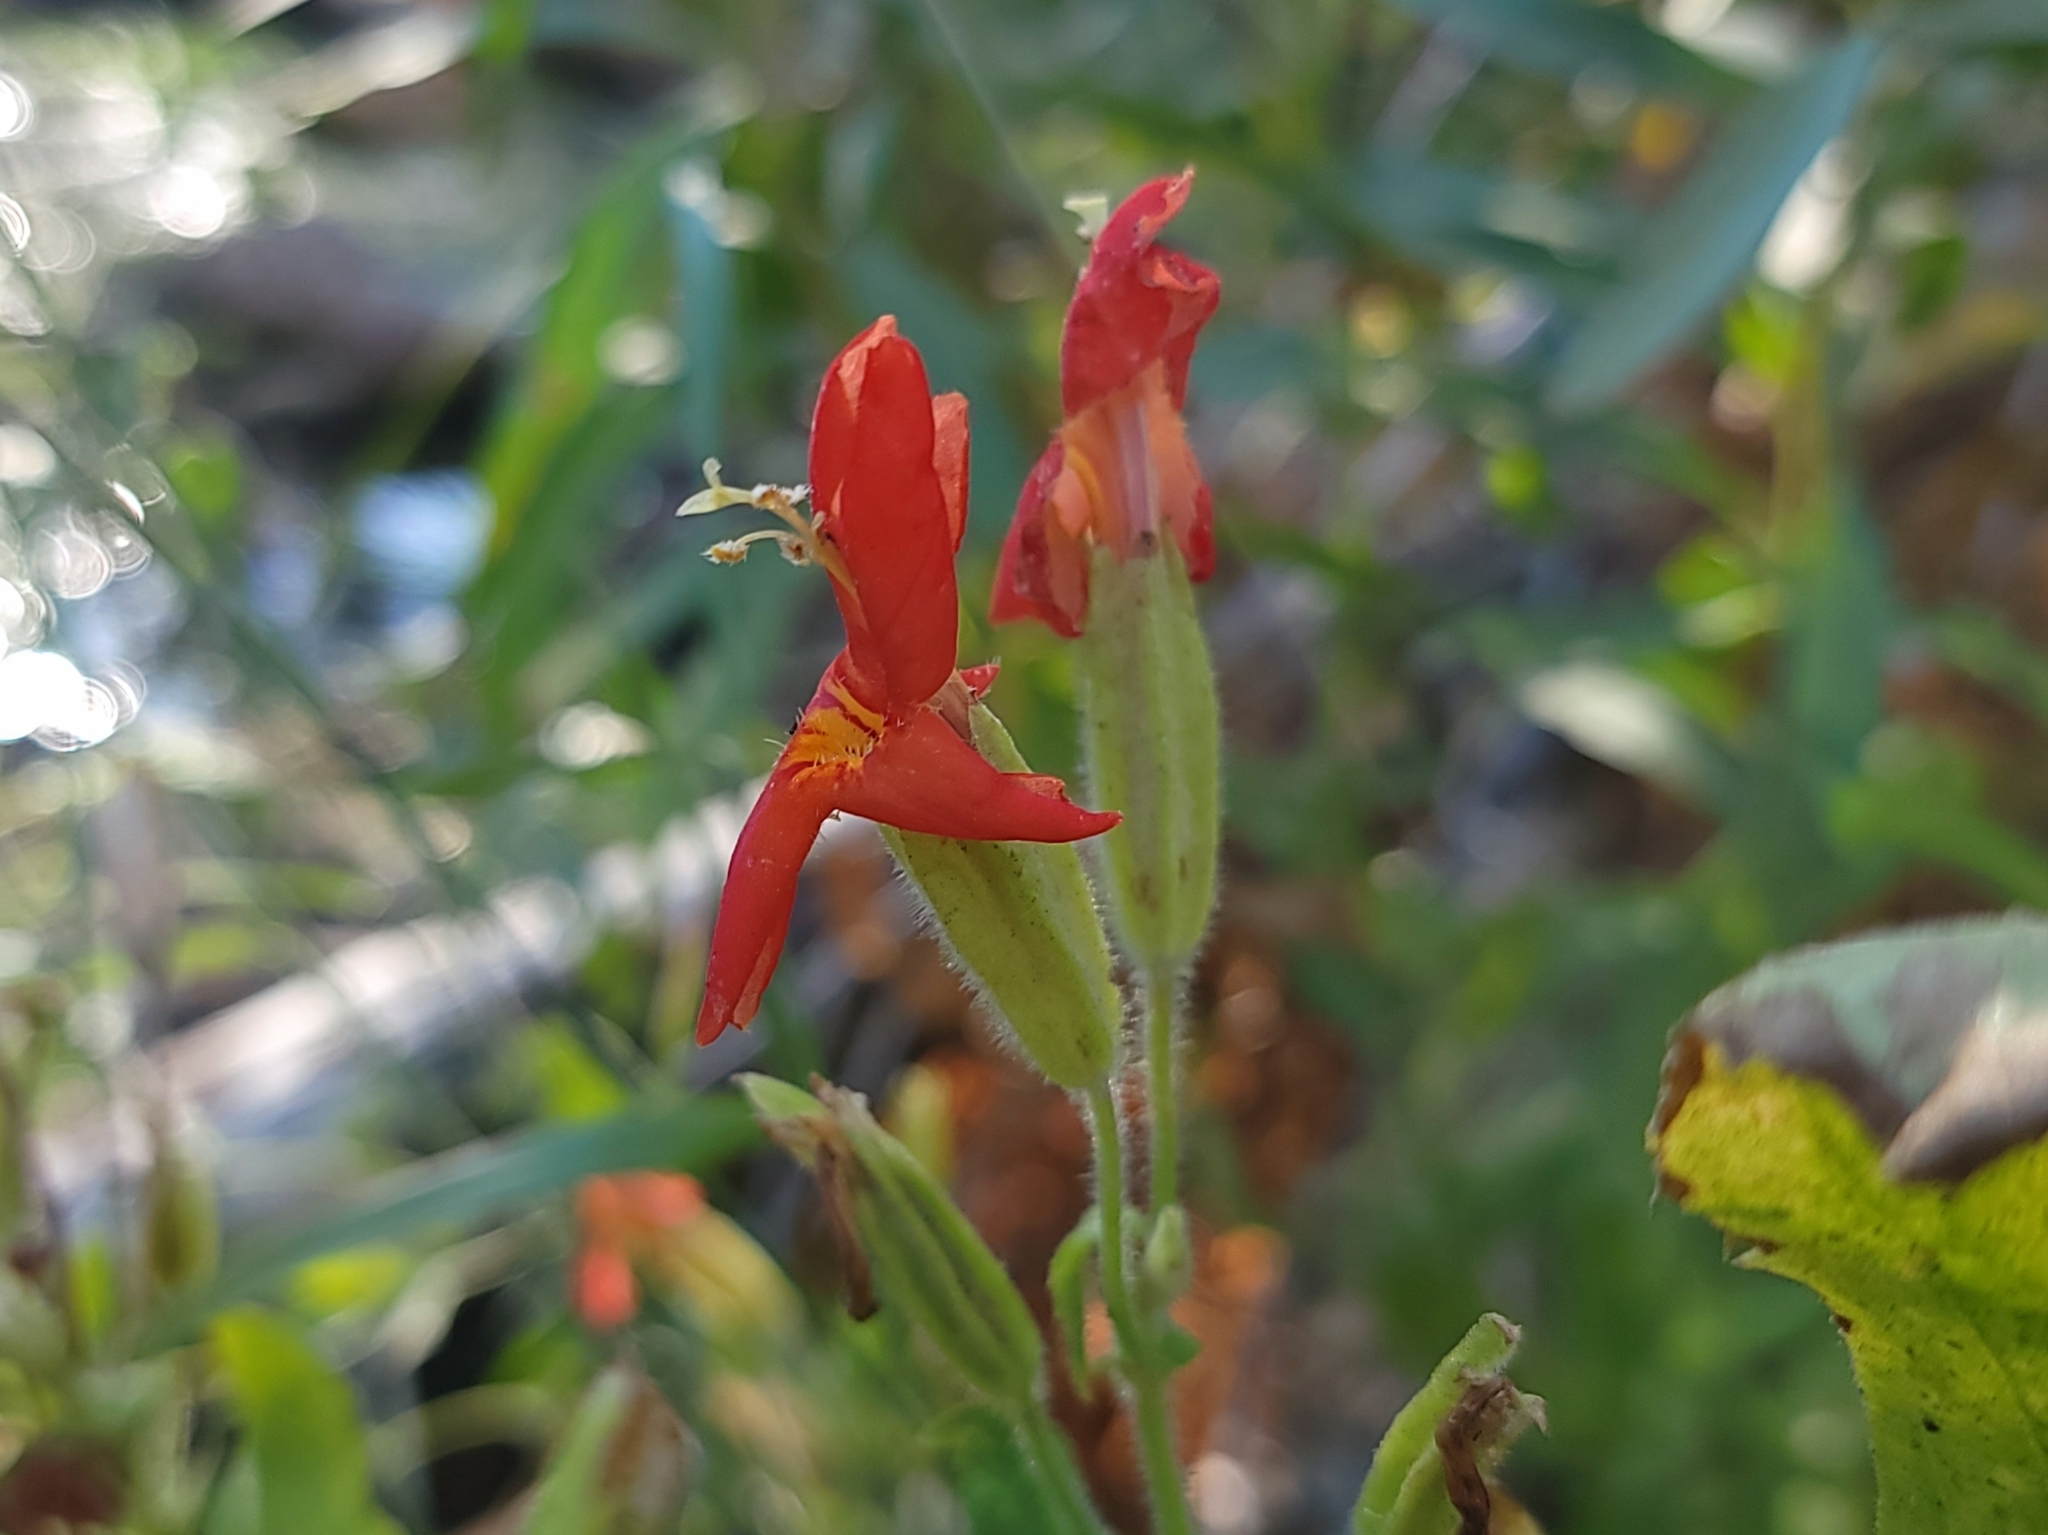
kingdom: Plantae
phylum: Tracheophyta
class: Magnoliopsida
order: Lamiales
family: Phrymaceae
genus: Erythranthe
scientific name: Erythranthe cardinalis
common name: Scarlet monkey-flower
